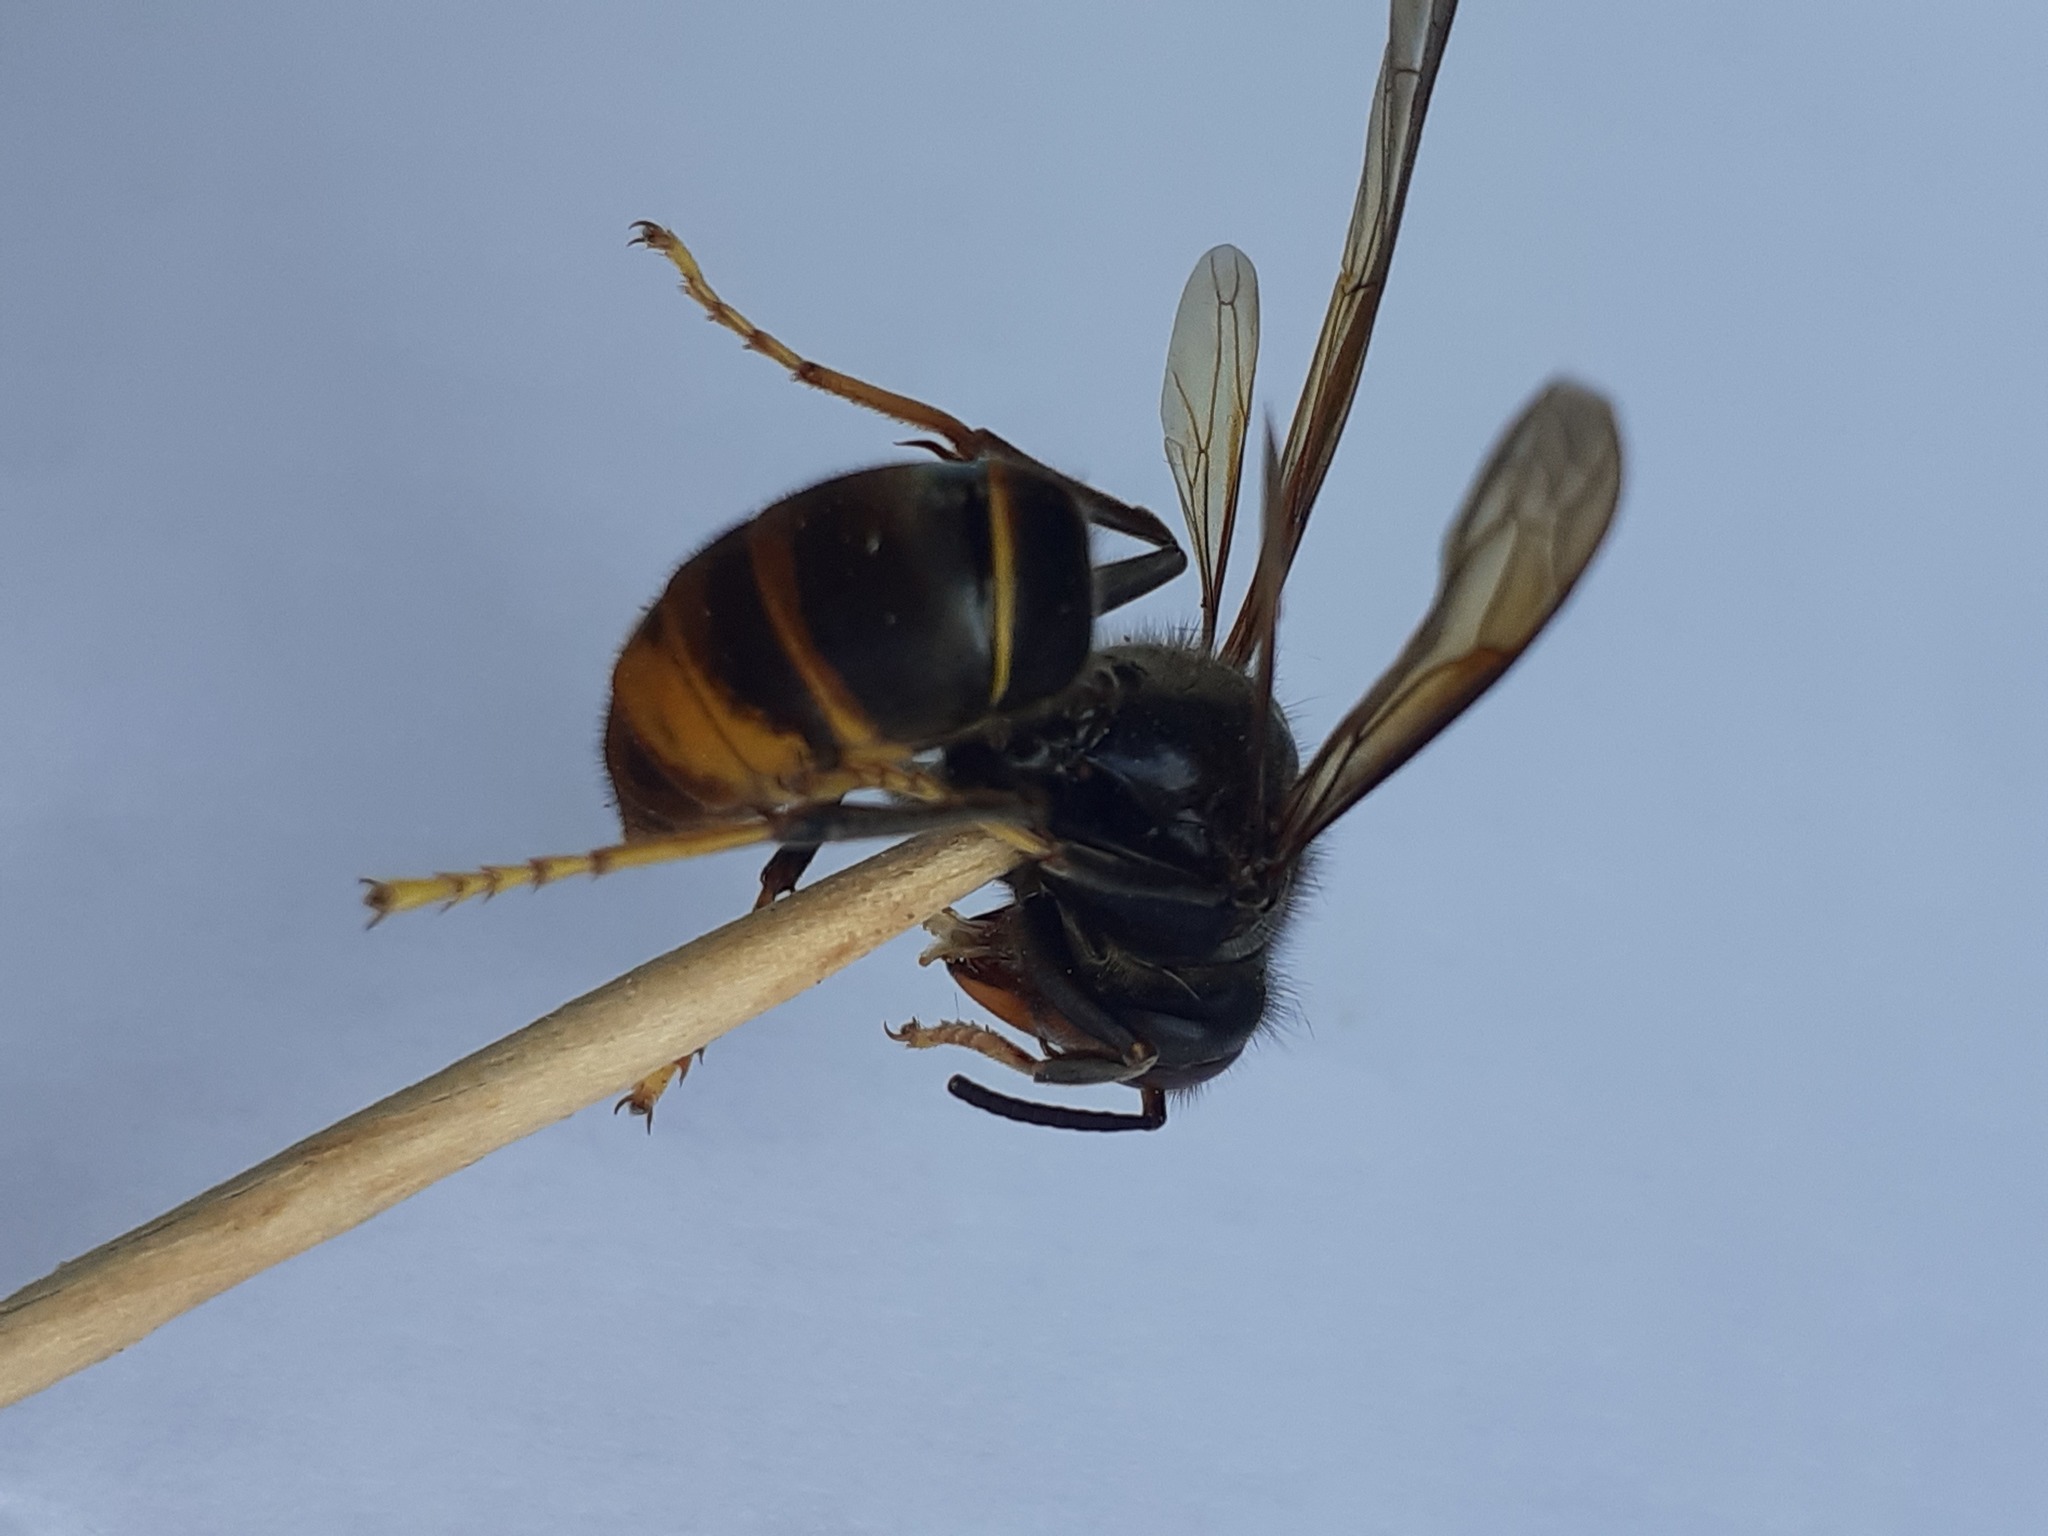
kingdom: Animalia
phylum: Arthropoda
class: Insecta
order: Hymenoptera
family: Vespidae
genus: Vespa
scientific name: Vespa velutina
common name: Asian hornet
